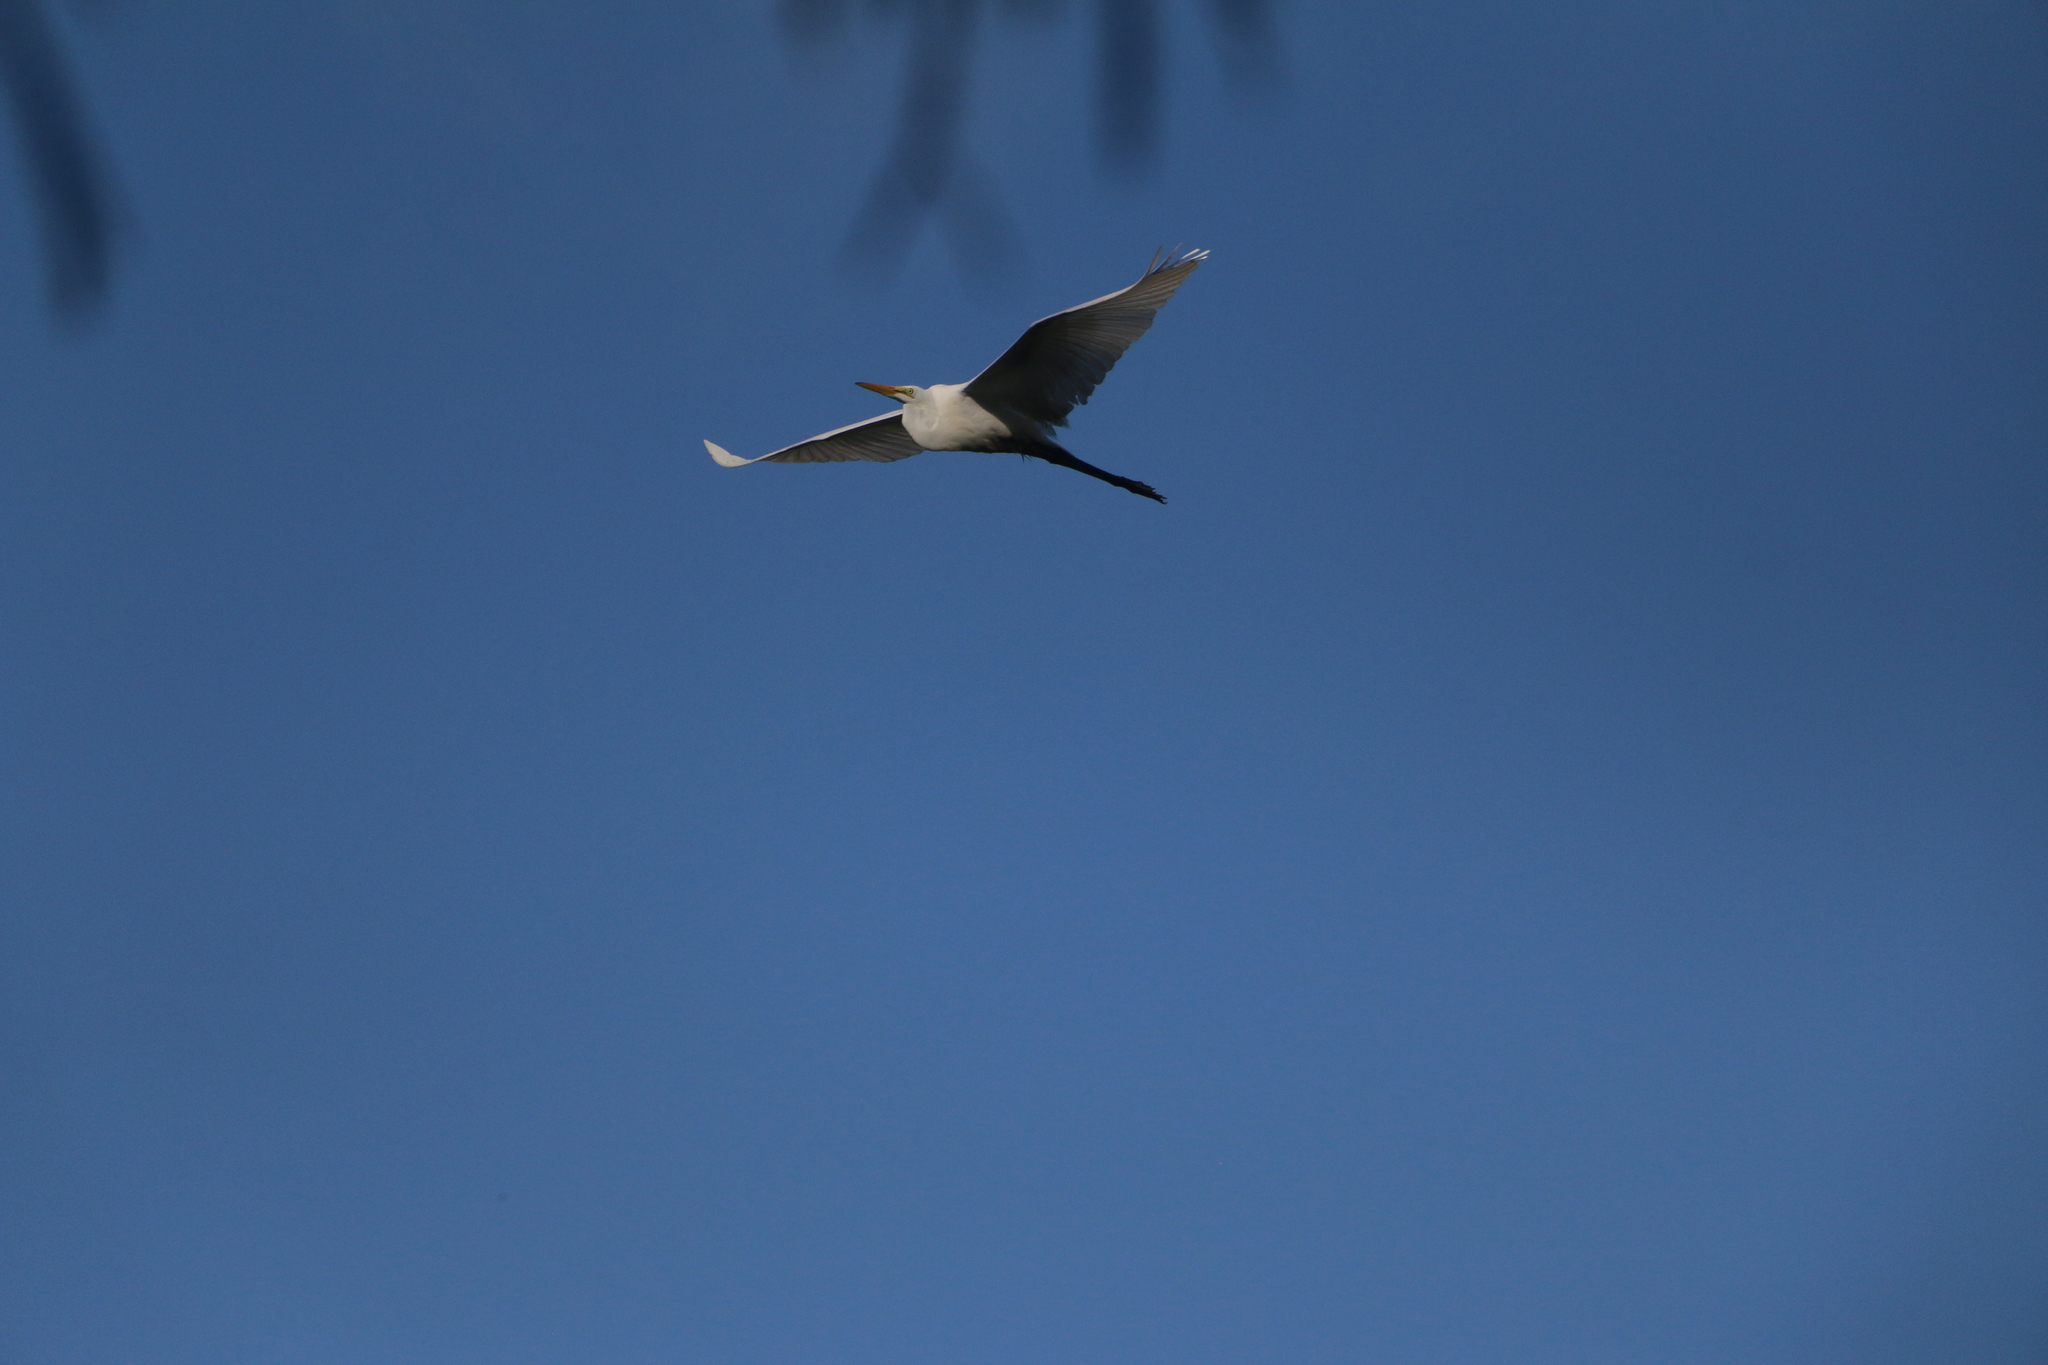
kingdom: Animalia
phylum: Chordata
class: Aves
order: Pelecaniformes
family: Ardeidae
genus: Ardea
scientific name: Ardea alba
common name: Great egret
